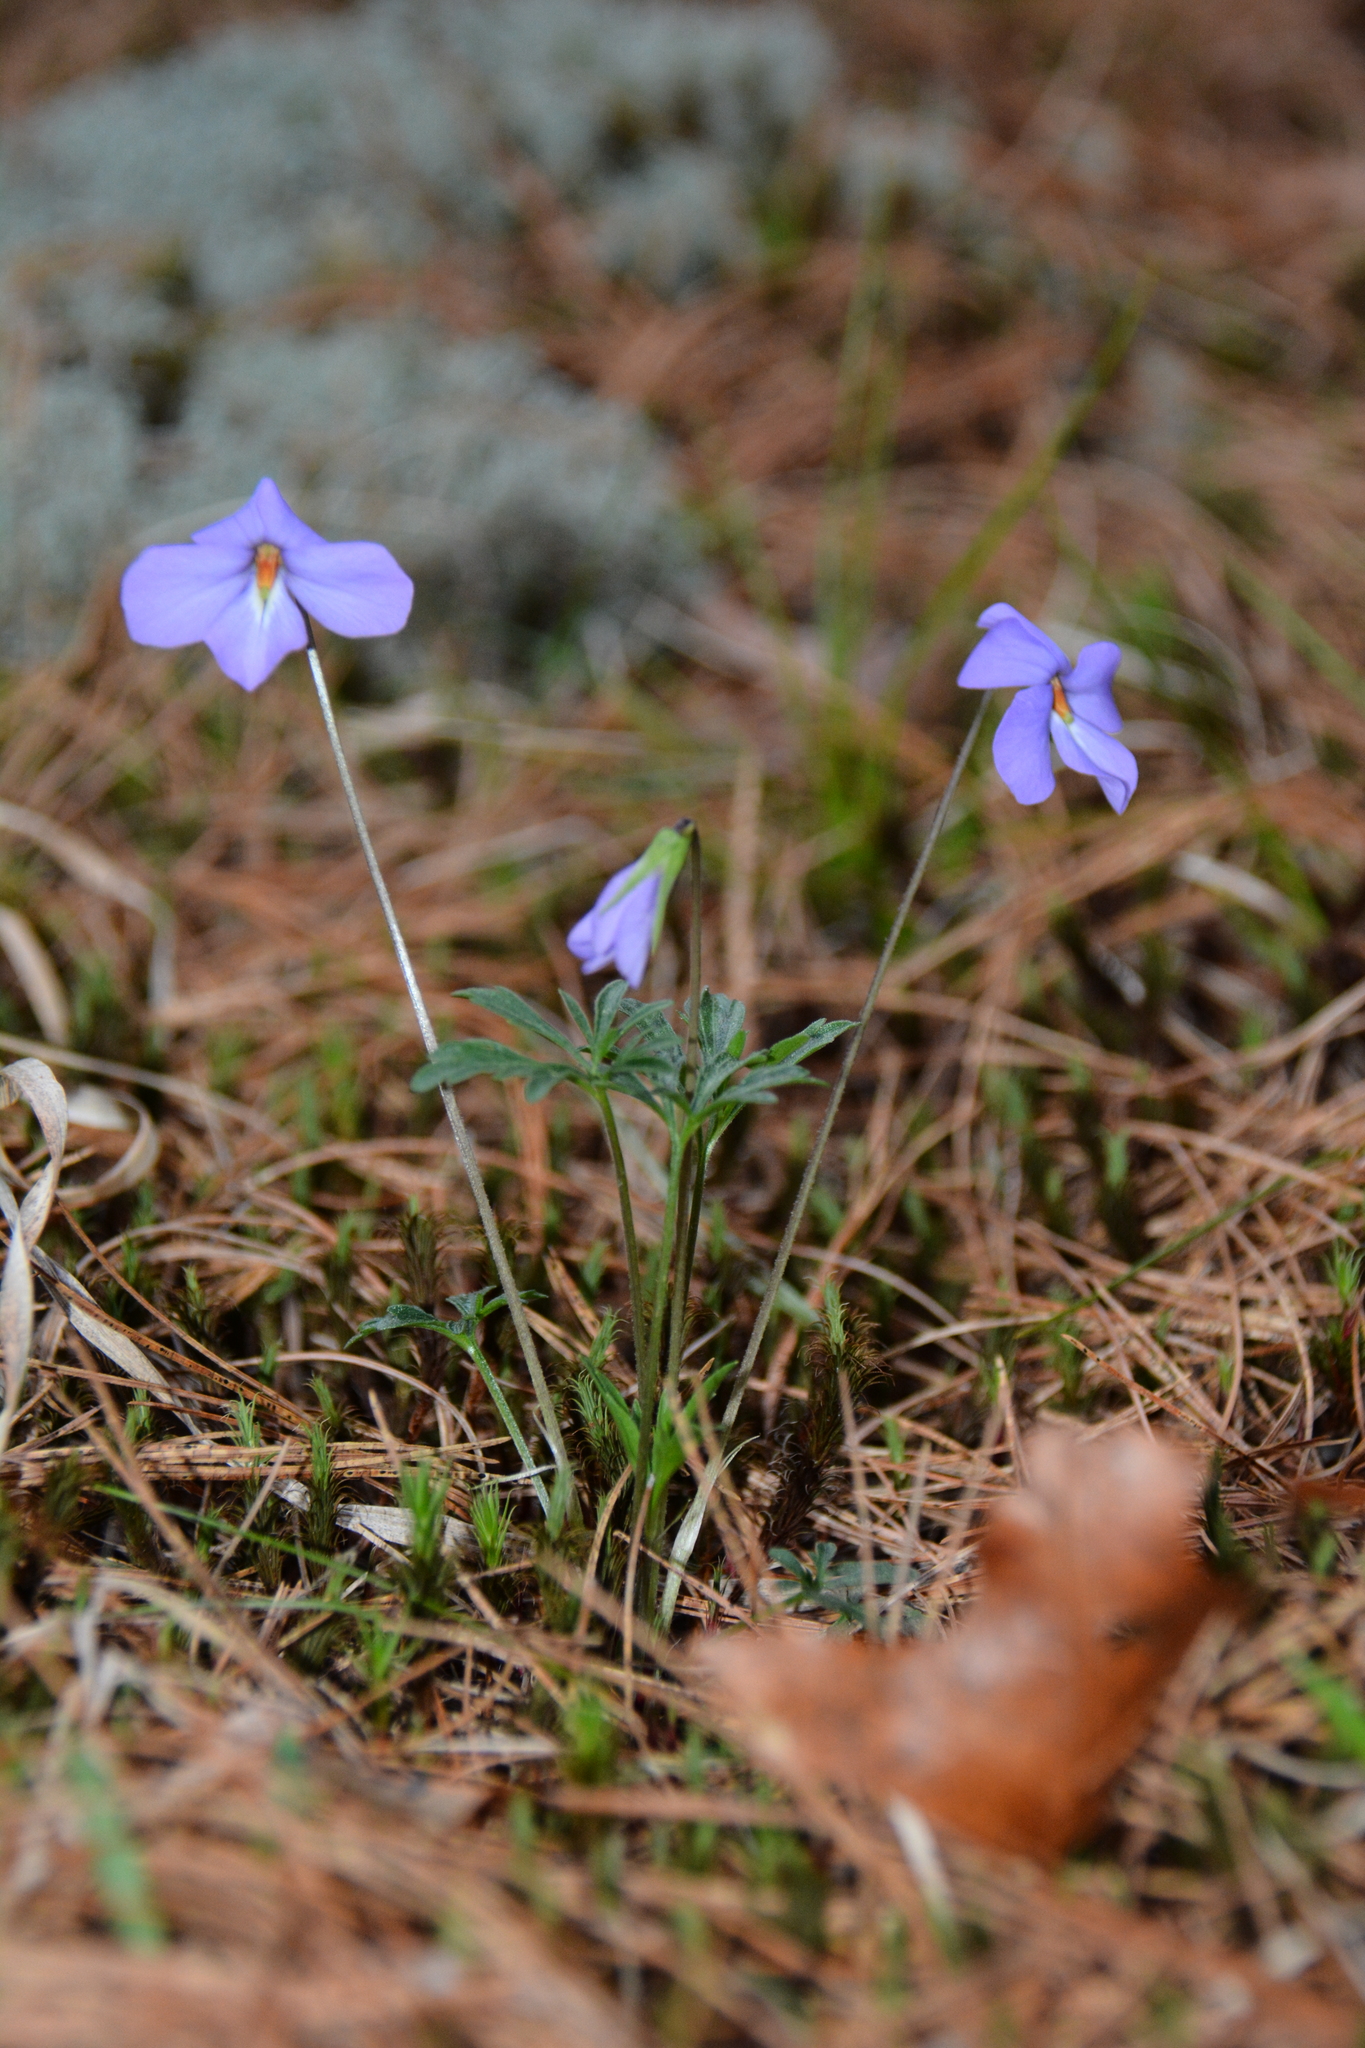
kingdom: Plantae
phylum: Tracheophyta
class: Magnoliopsida
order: Malpighiales
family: Violaceae
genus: Viola
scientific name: Viola pedata
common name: Pansy violet
